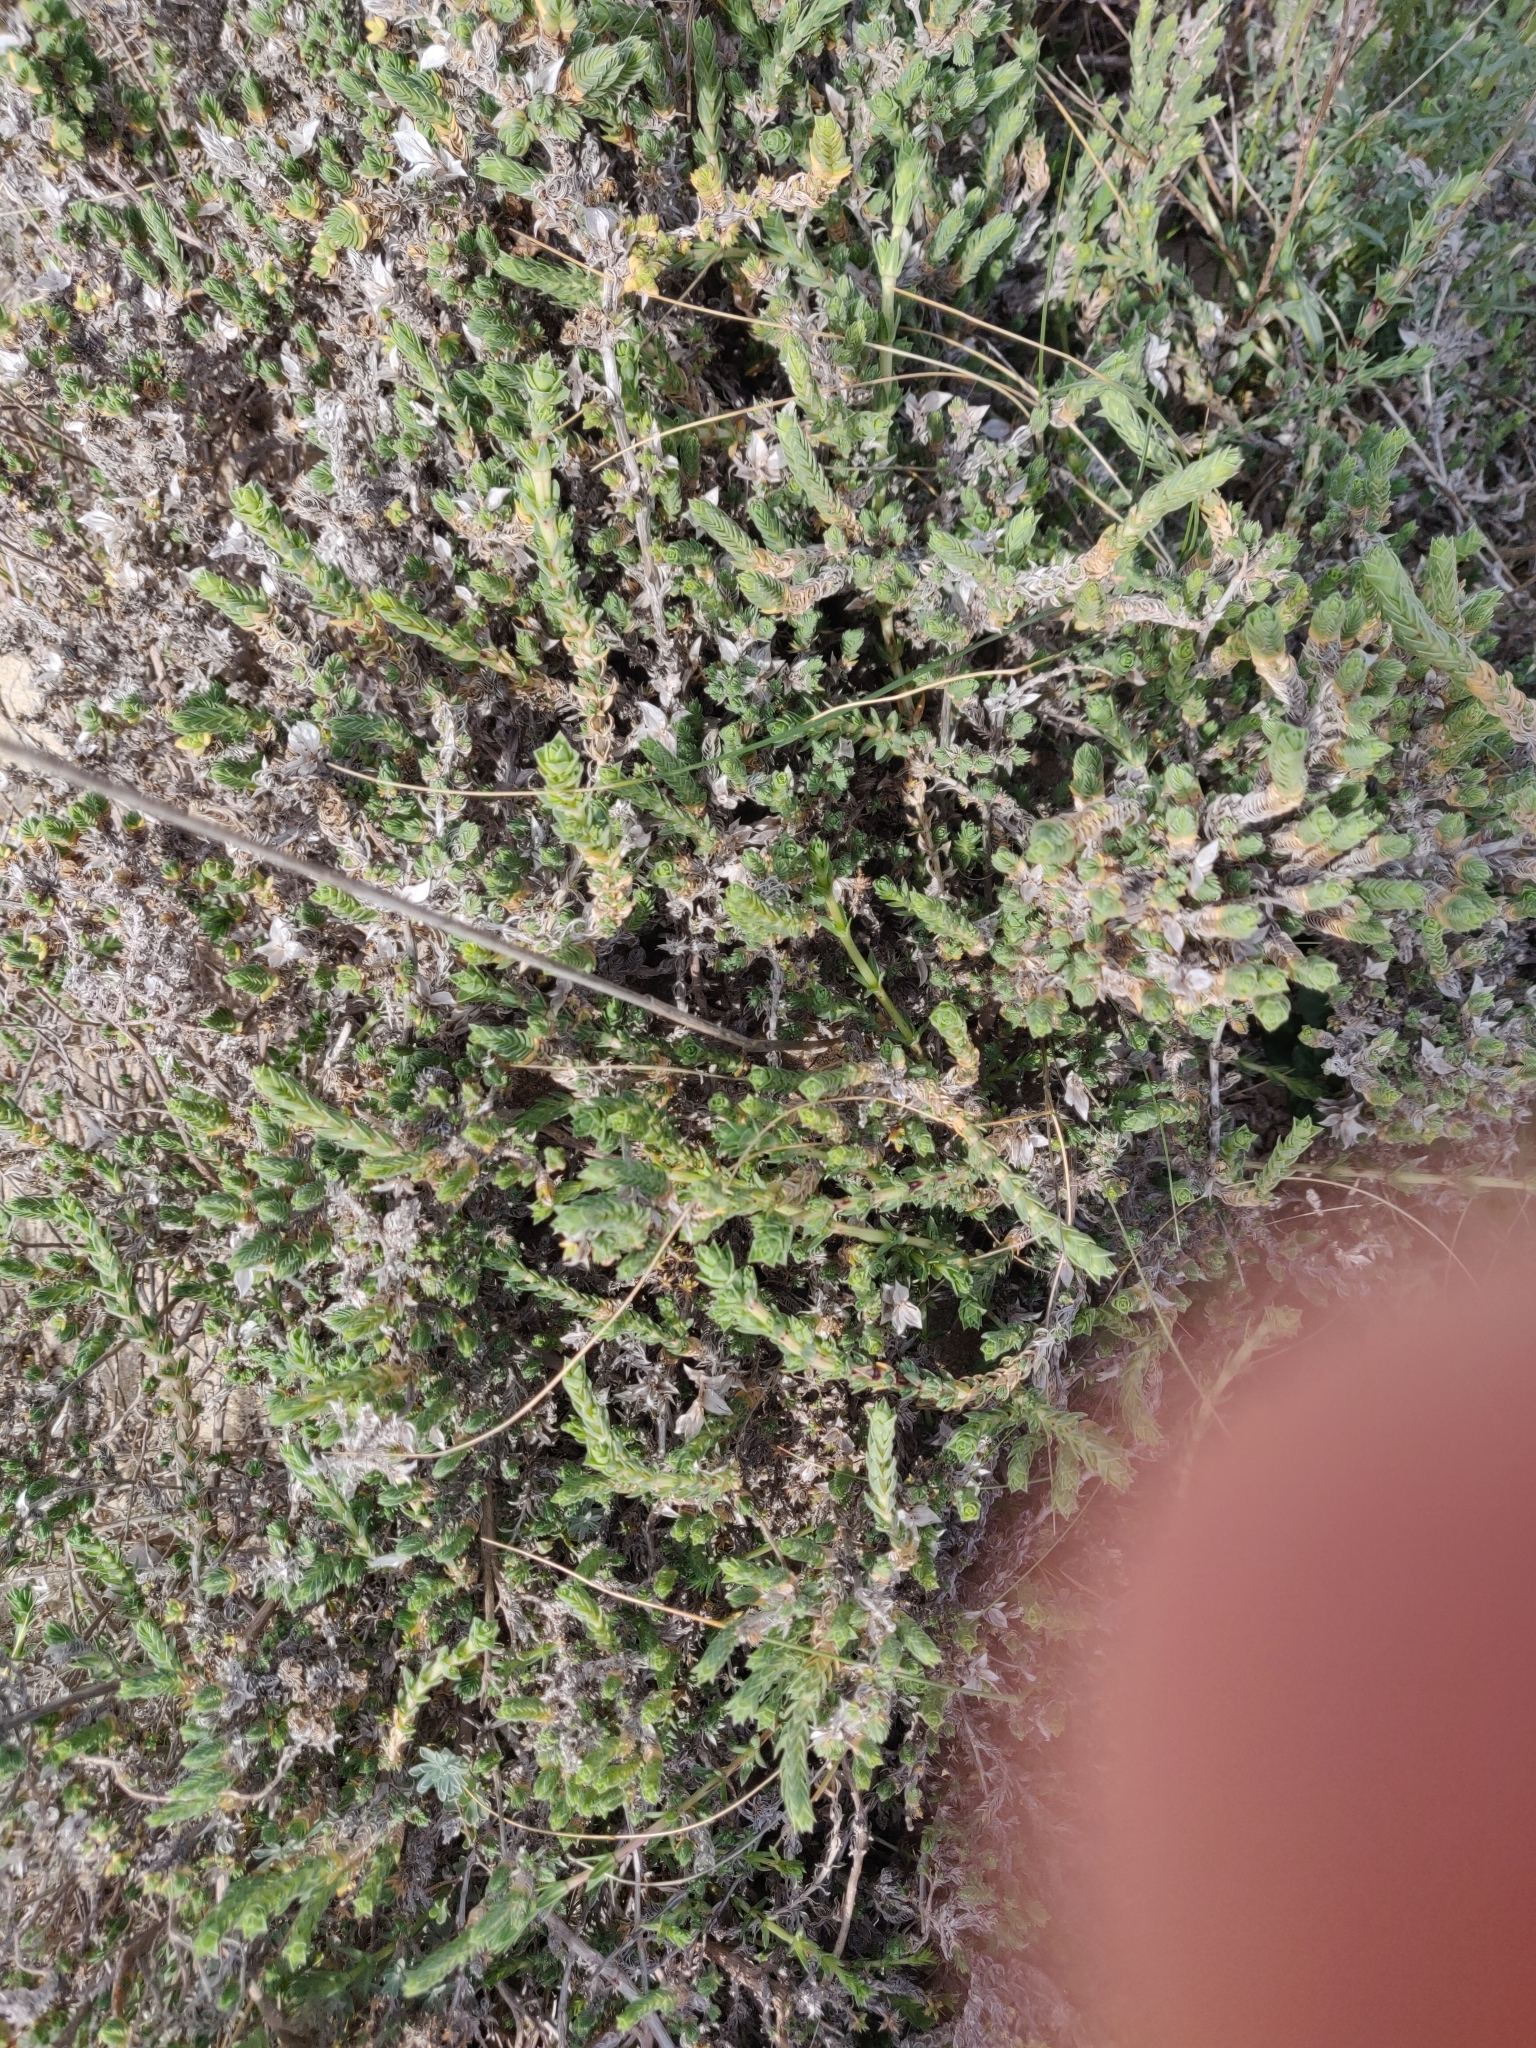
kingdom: Plantae
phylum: Tracheophyta
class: Magnoliopsida
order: Gentianales
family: Rubiaceae
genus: Crucianella
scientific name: Crucianella maritima
